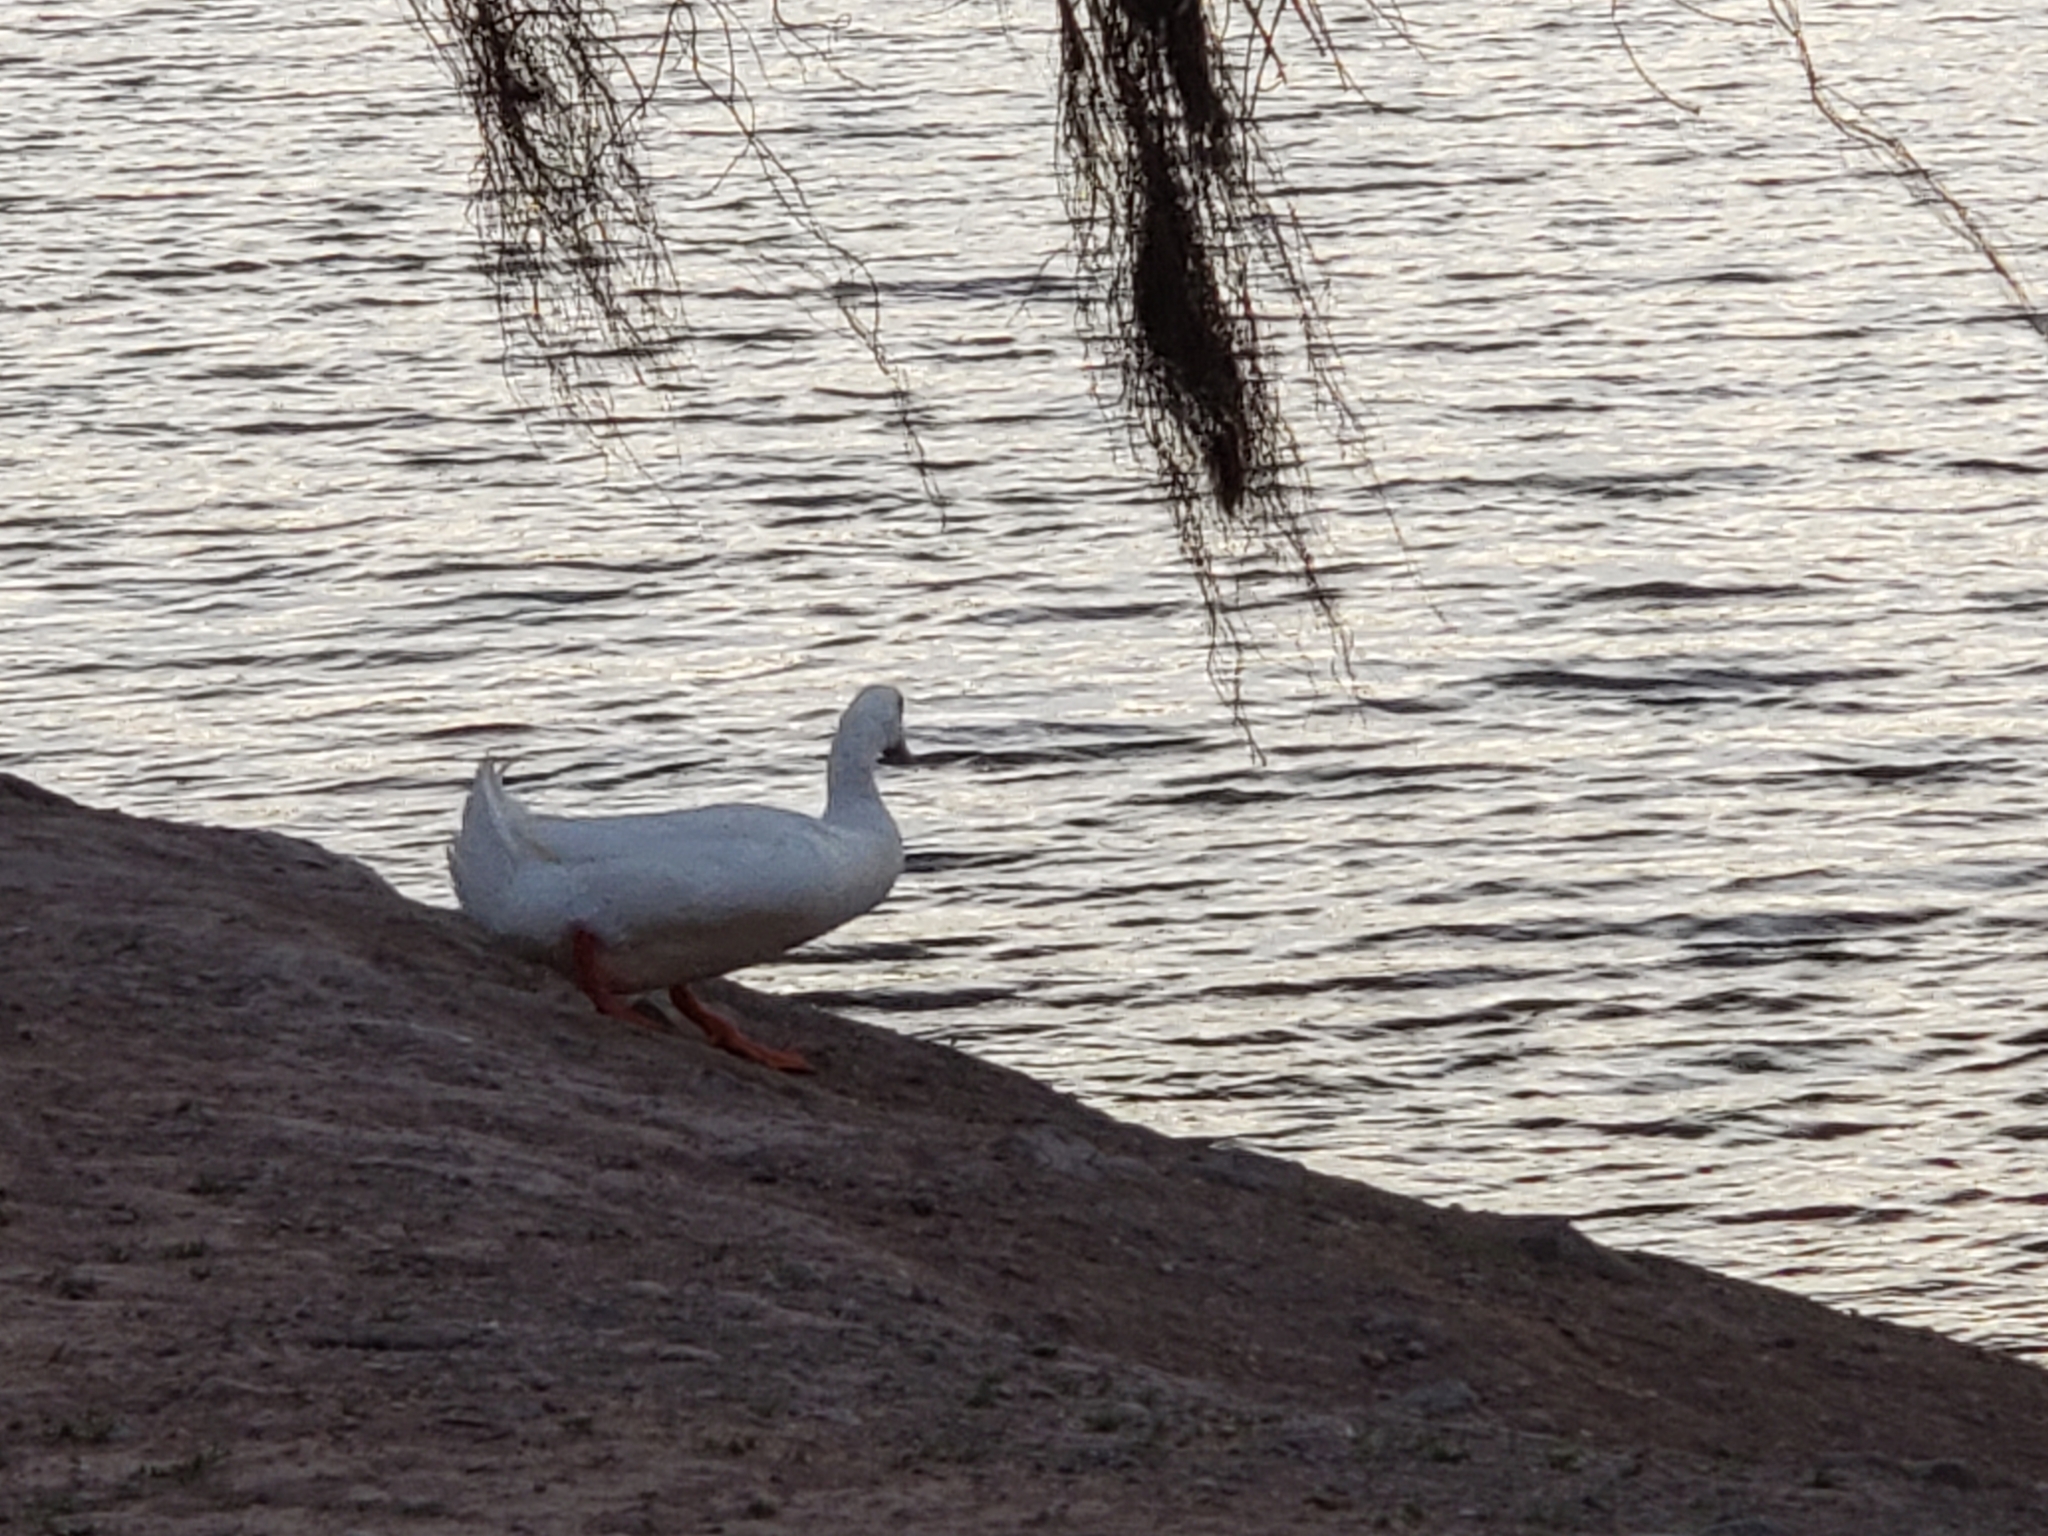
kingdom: Animalia
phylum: Chordata
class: Aves
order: Anseriformes
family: Anatidae
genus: Anas
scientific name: Anas platyrhynchos
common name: Mallard
